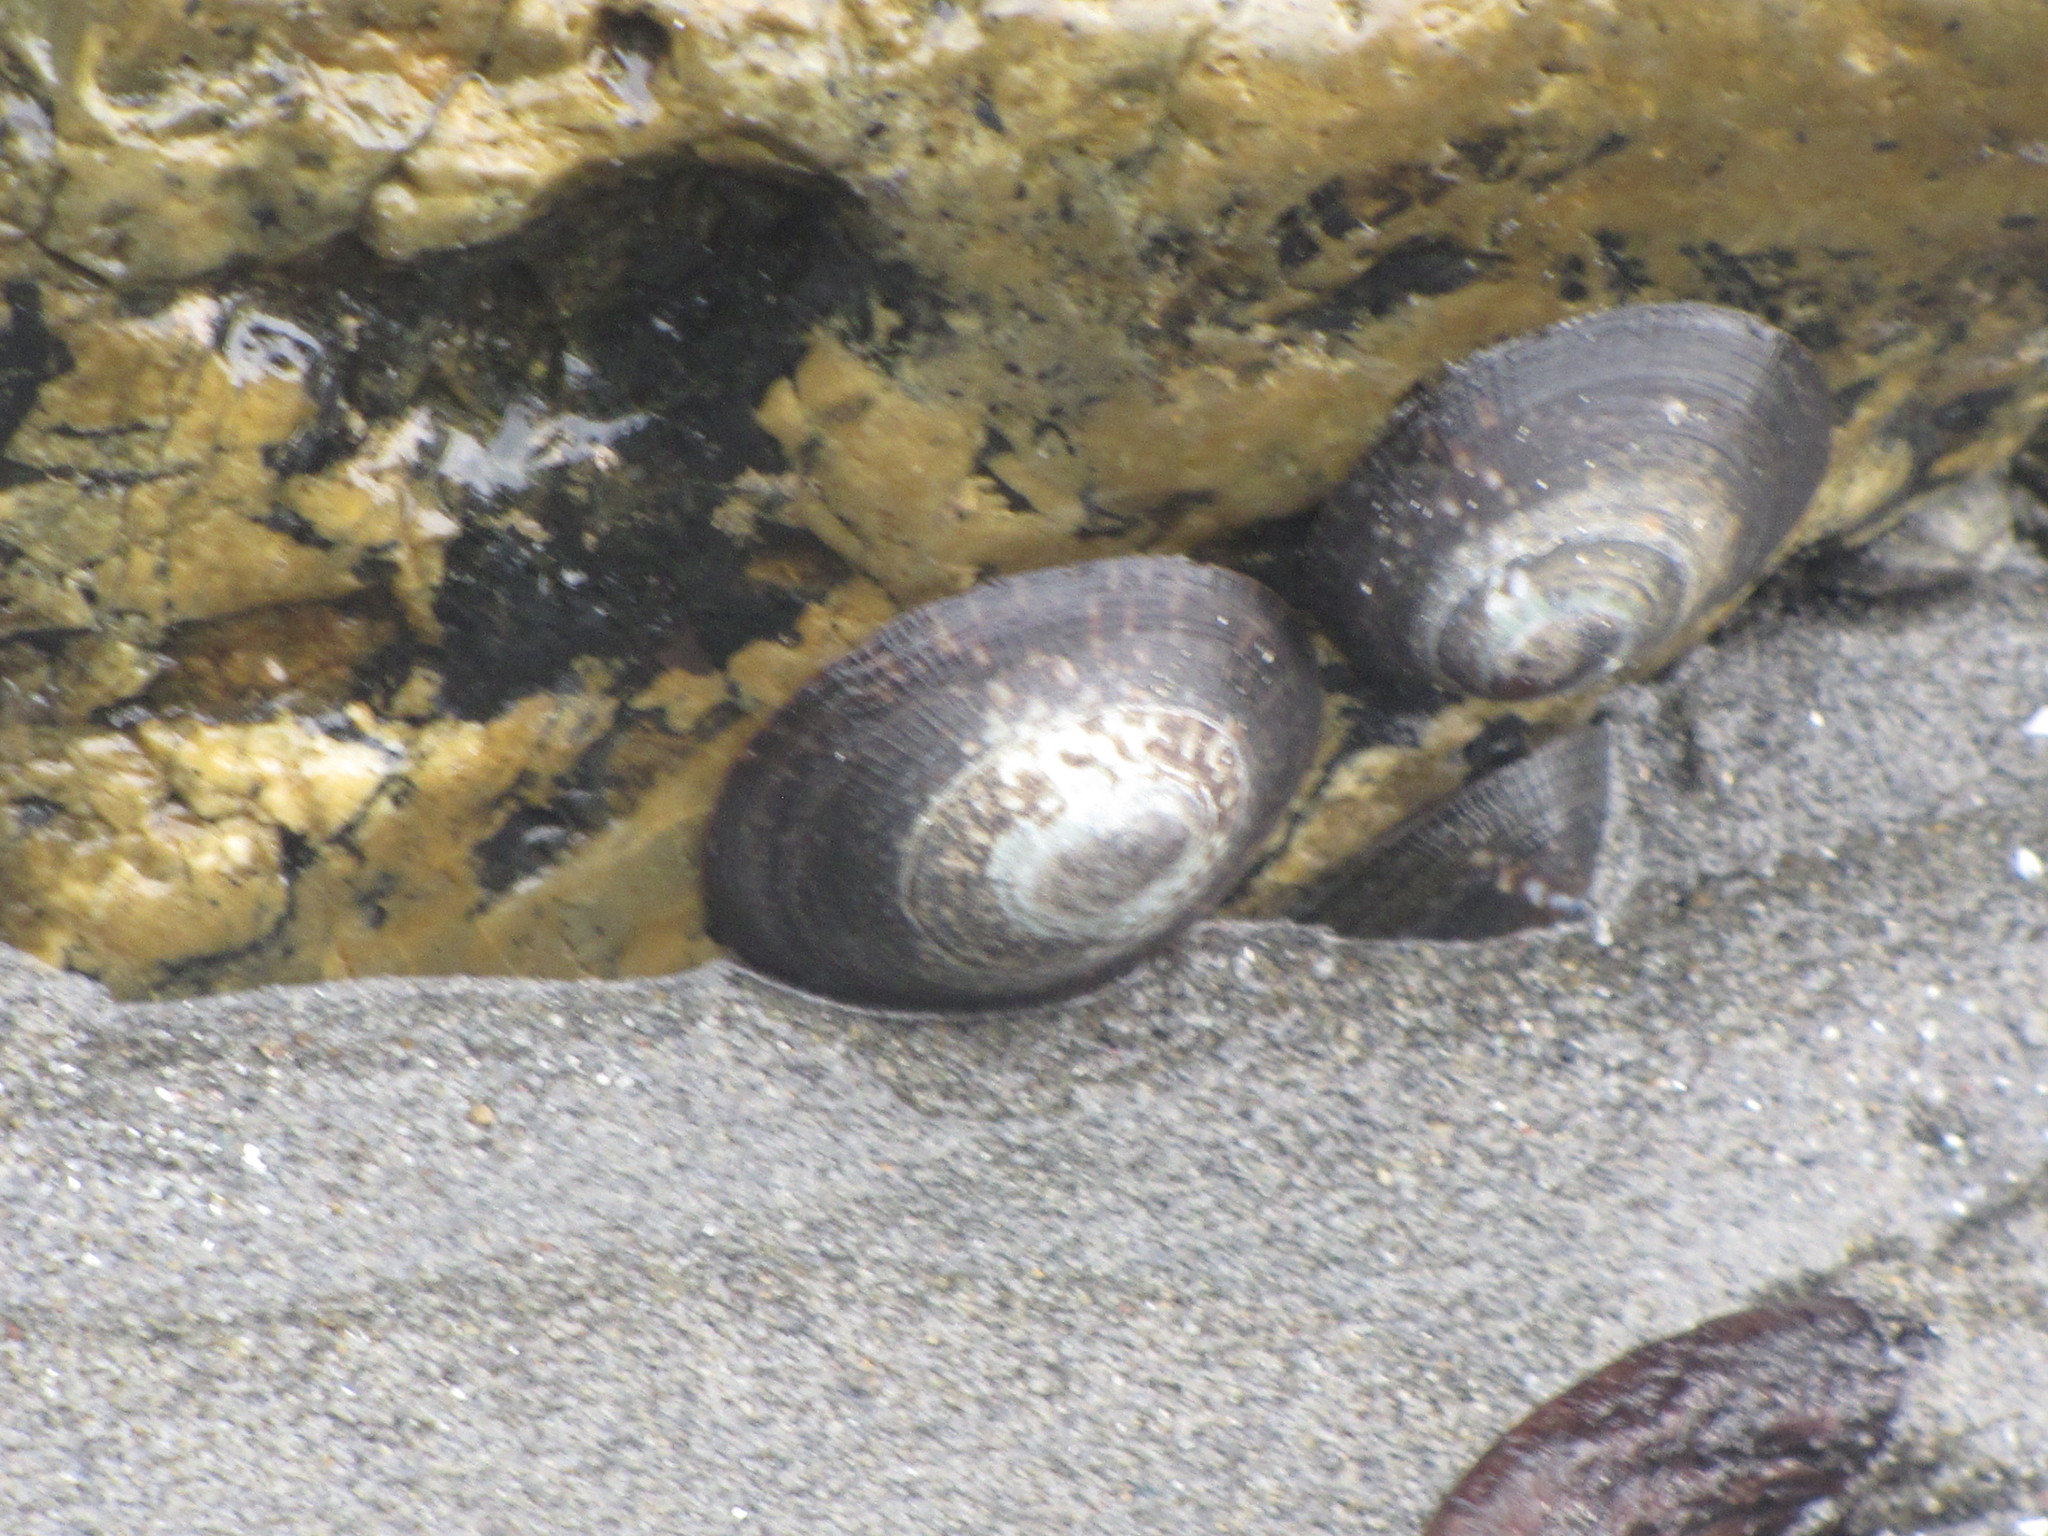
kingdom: Animalia
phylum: Mollusca
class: Gastropoda
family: Lottiidae
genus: Lottia
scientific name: Lottia persona
